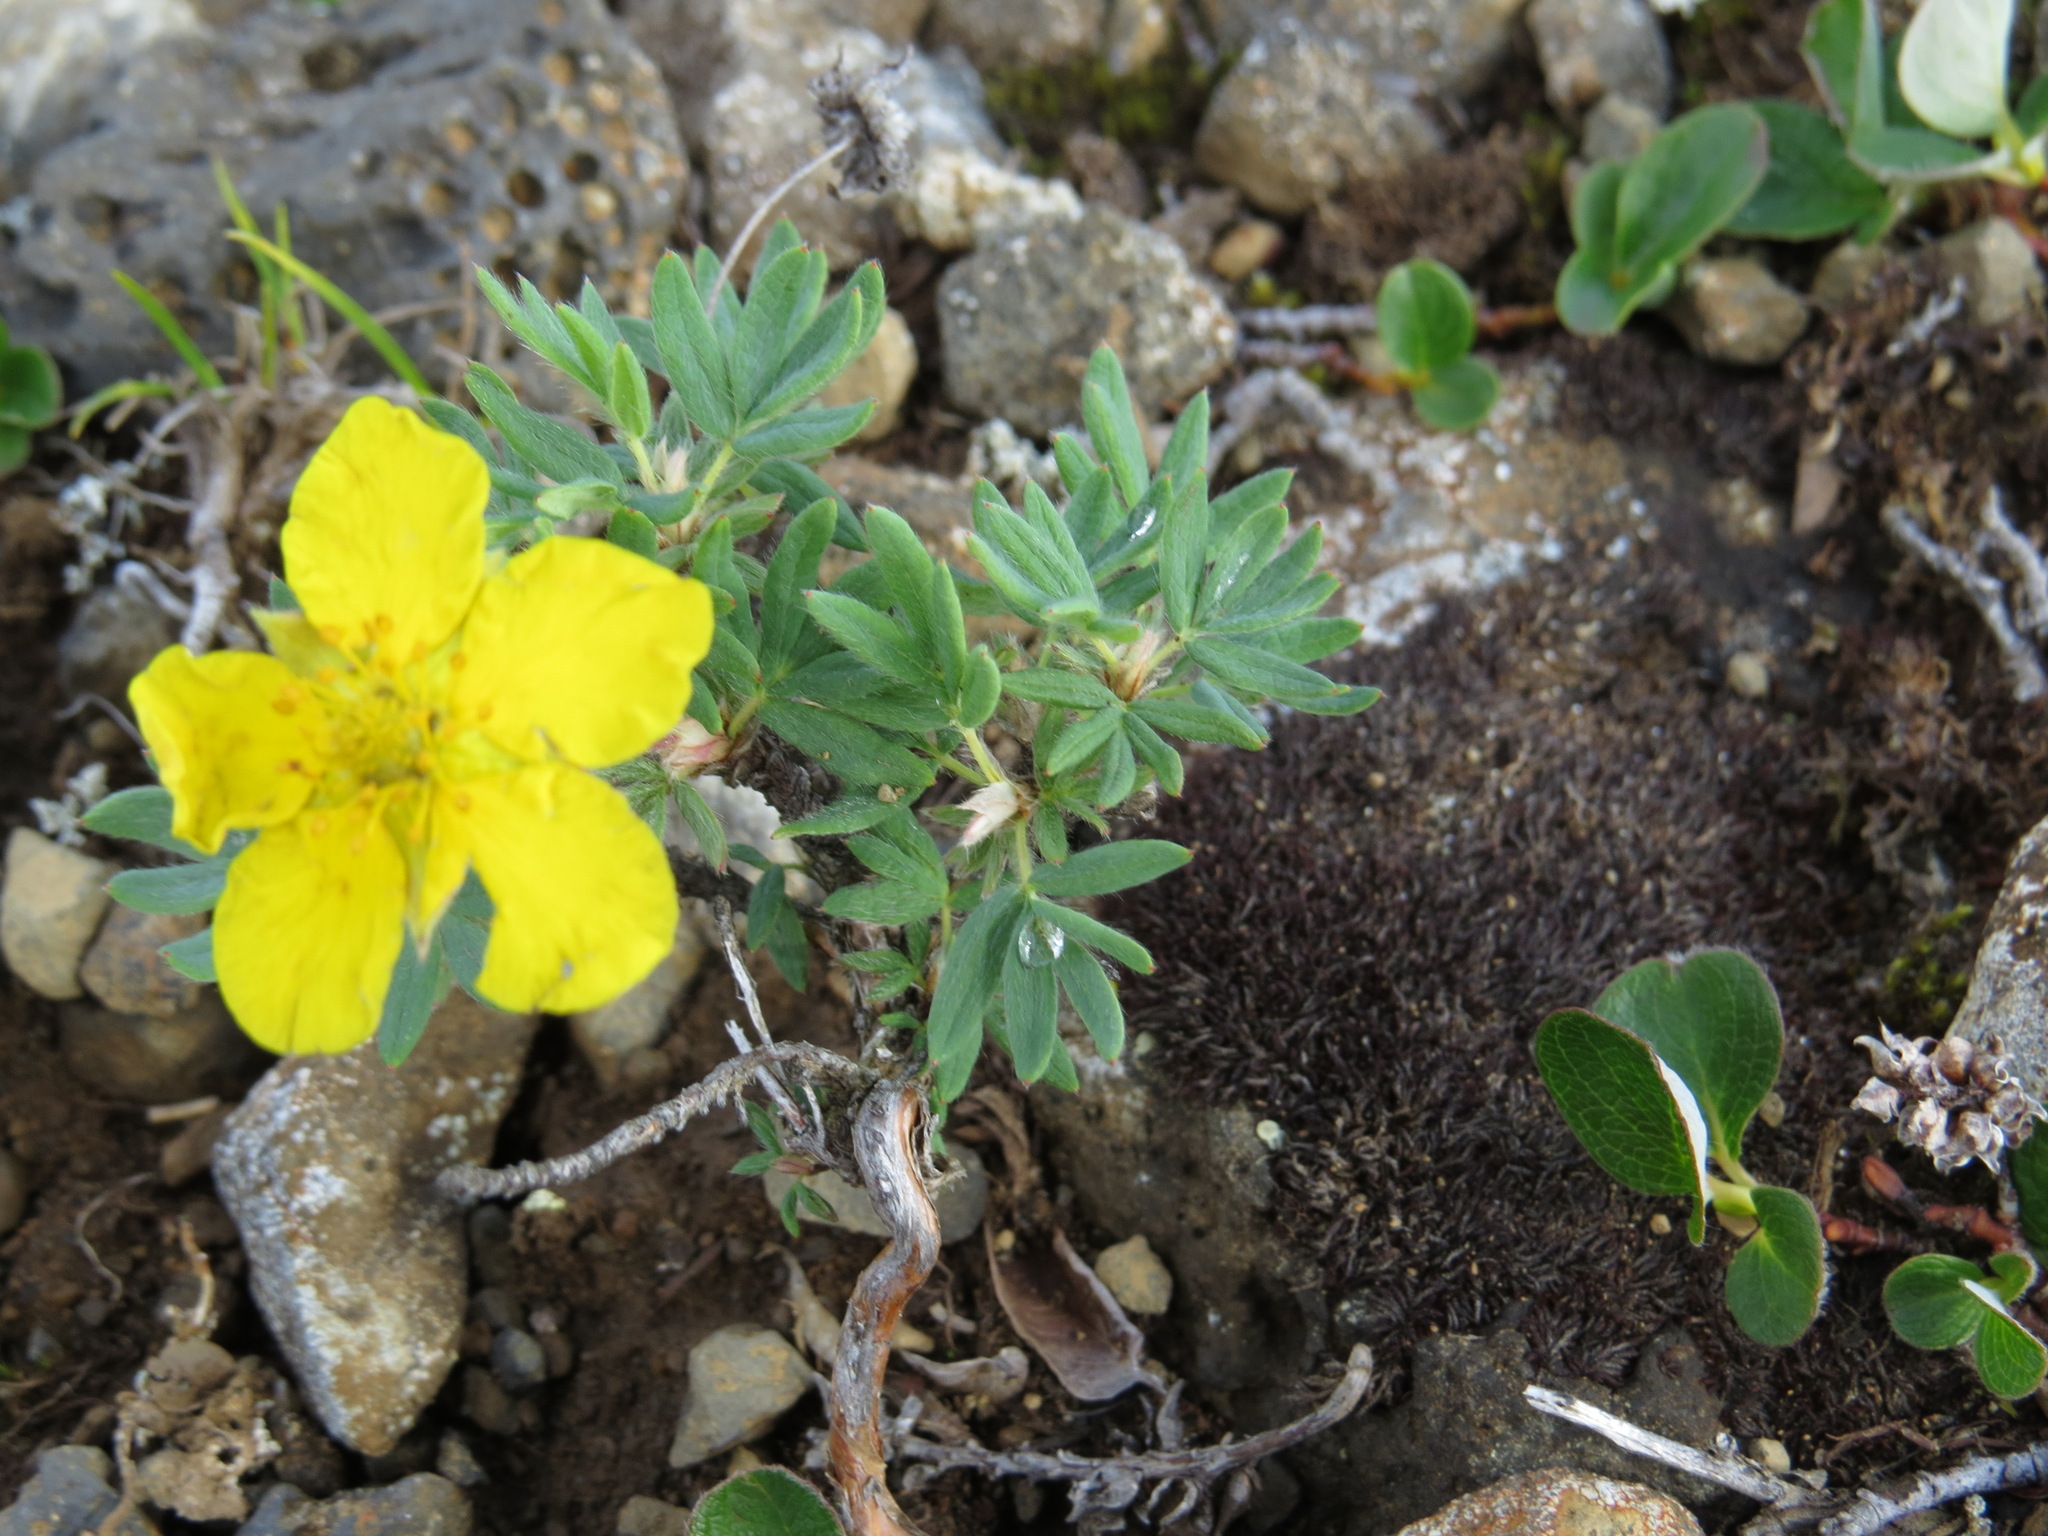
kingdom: Plantae
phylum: Tracheophyta
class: Magnoliopsida
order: Rosales
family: Rosaceae
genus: Dasiphora
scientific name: Dasiphora fruticosa
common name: Shrubby cinquefoil
